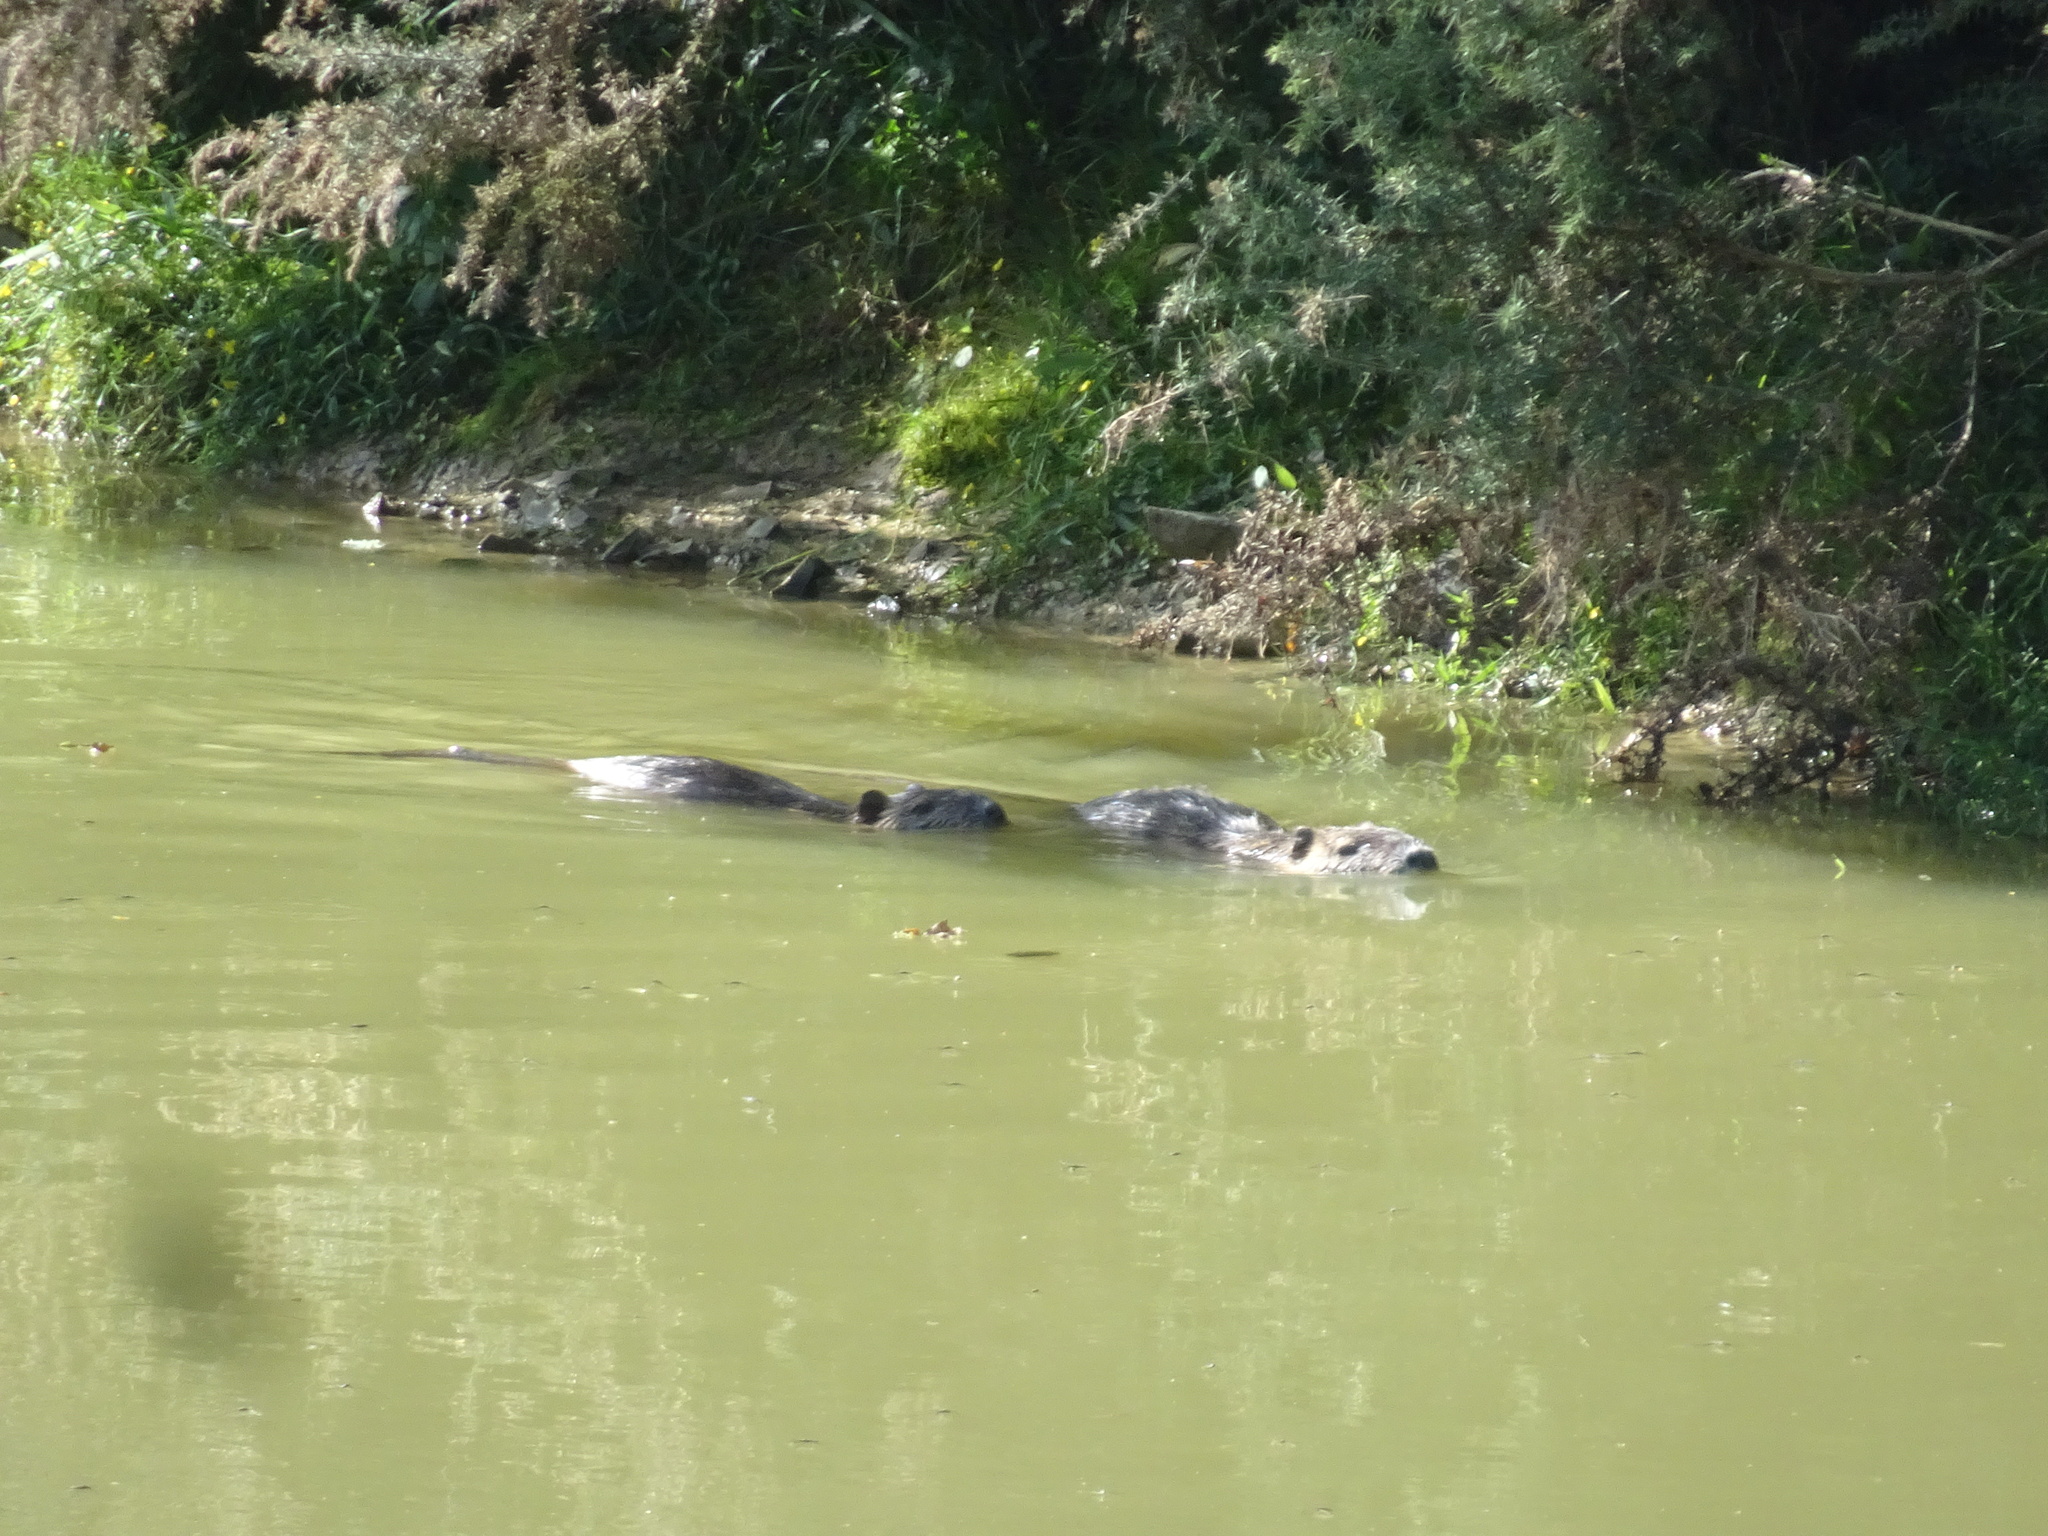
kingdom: Animalia
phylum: Chordata
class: Mammalia
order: Rodentia
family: Myocastoridae
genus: Myocastor
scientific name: Myocastor coypus
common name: Coypu
